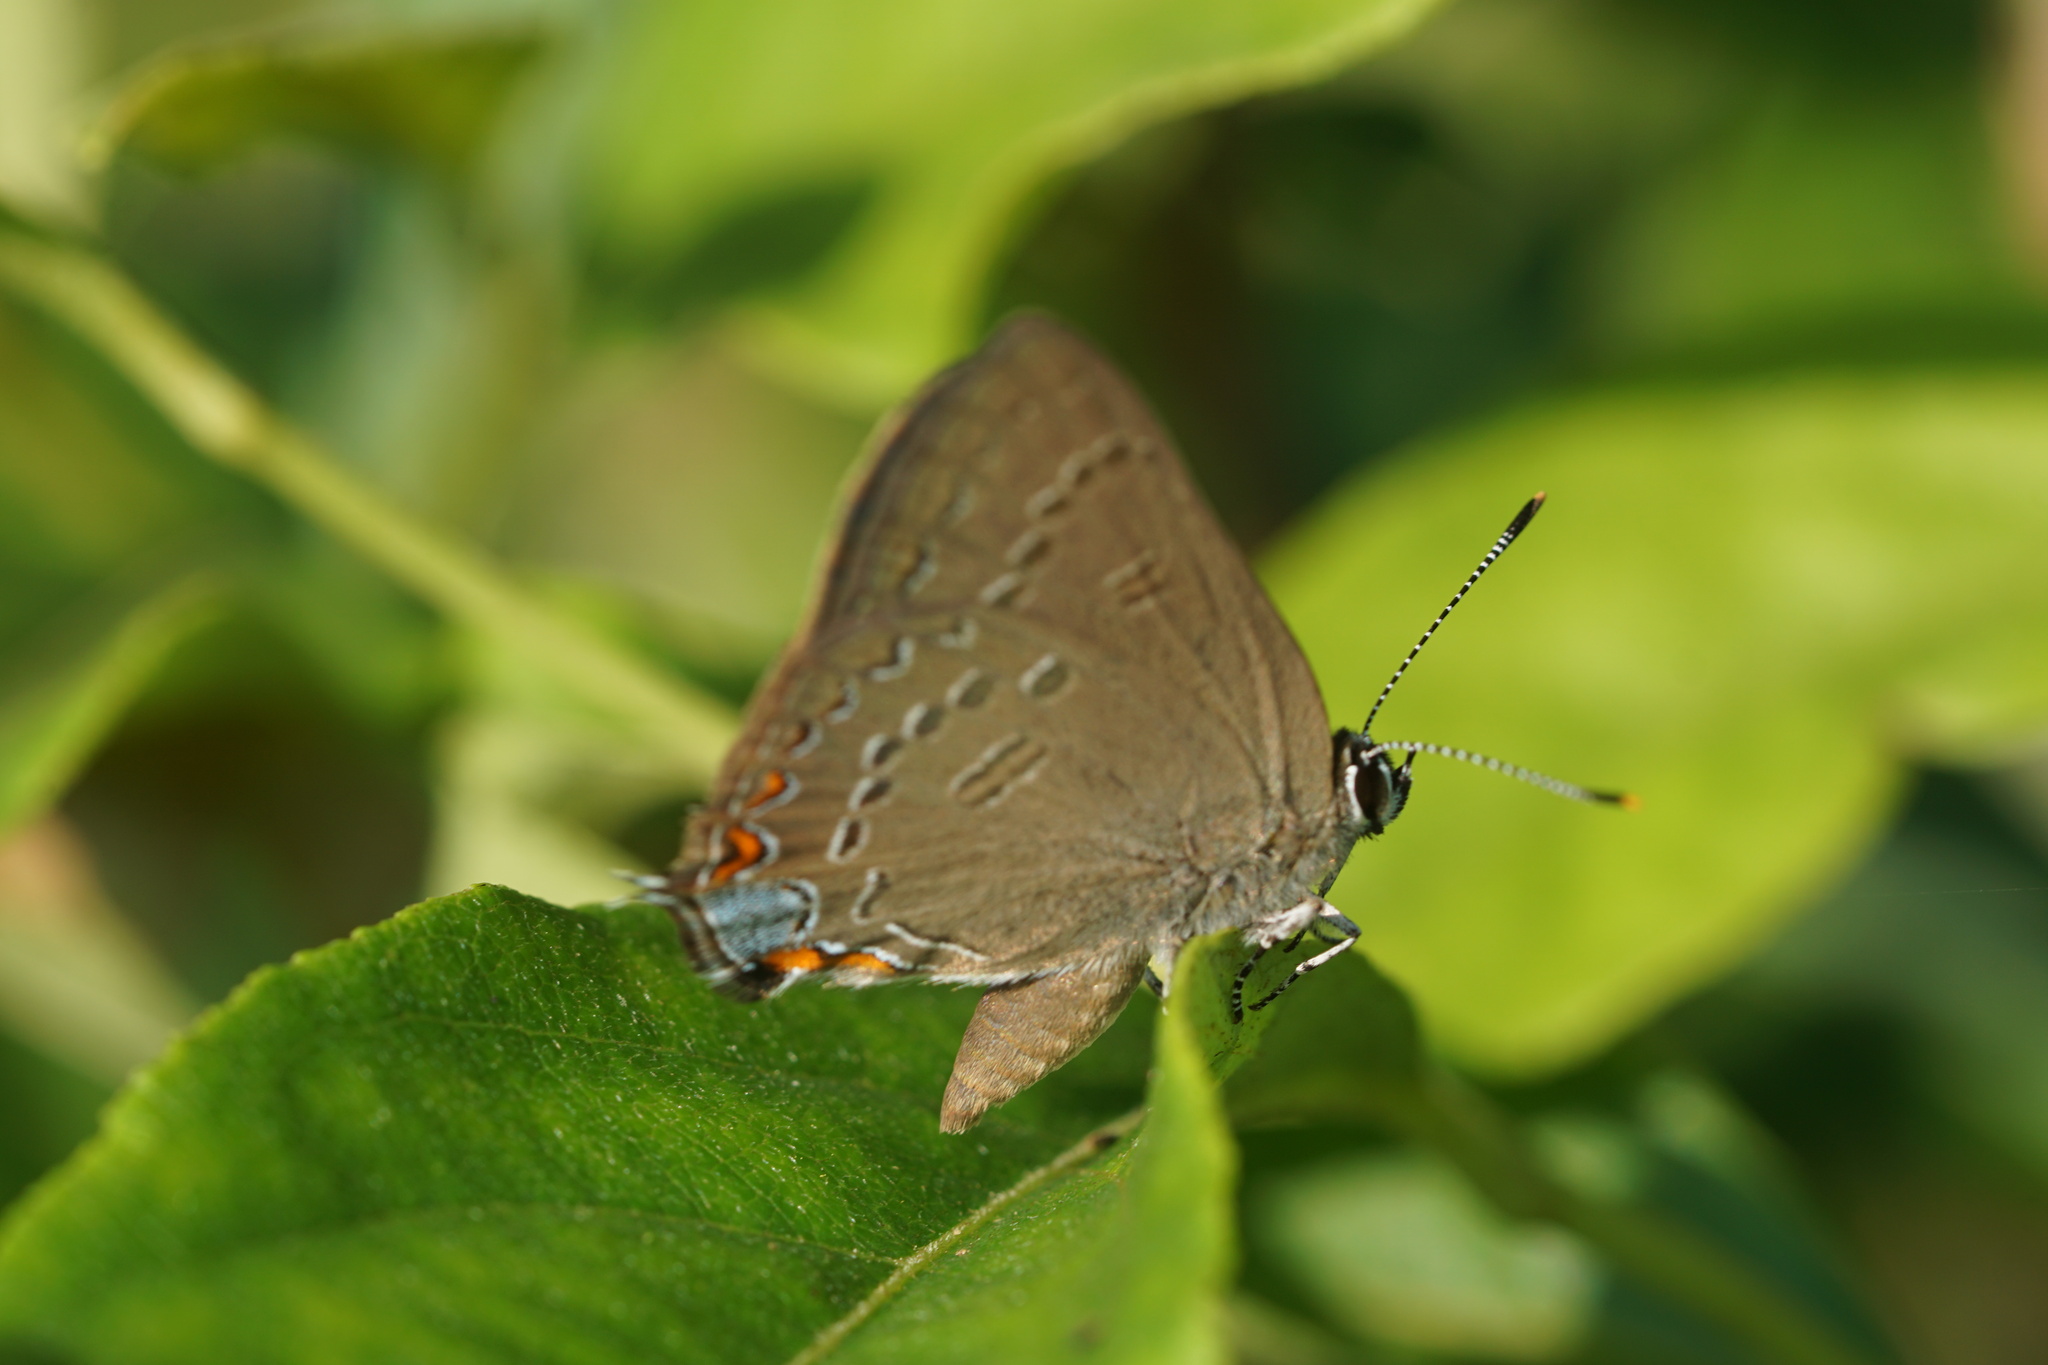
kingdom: Animalia
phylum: Arthropoda
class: Insecta
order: Lepidoptera
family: Lycaenidae
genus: Satyrium
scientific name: Satyrium edwardsii
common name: Edwards' hairstreak
